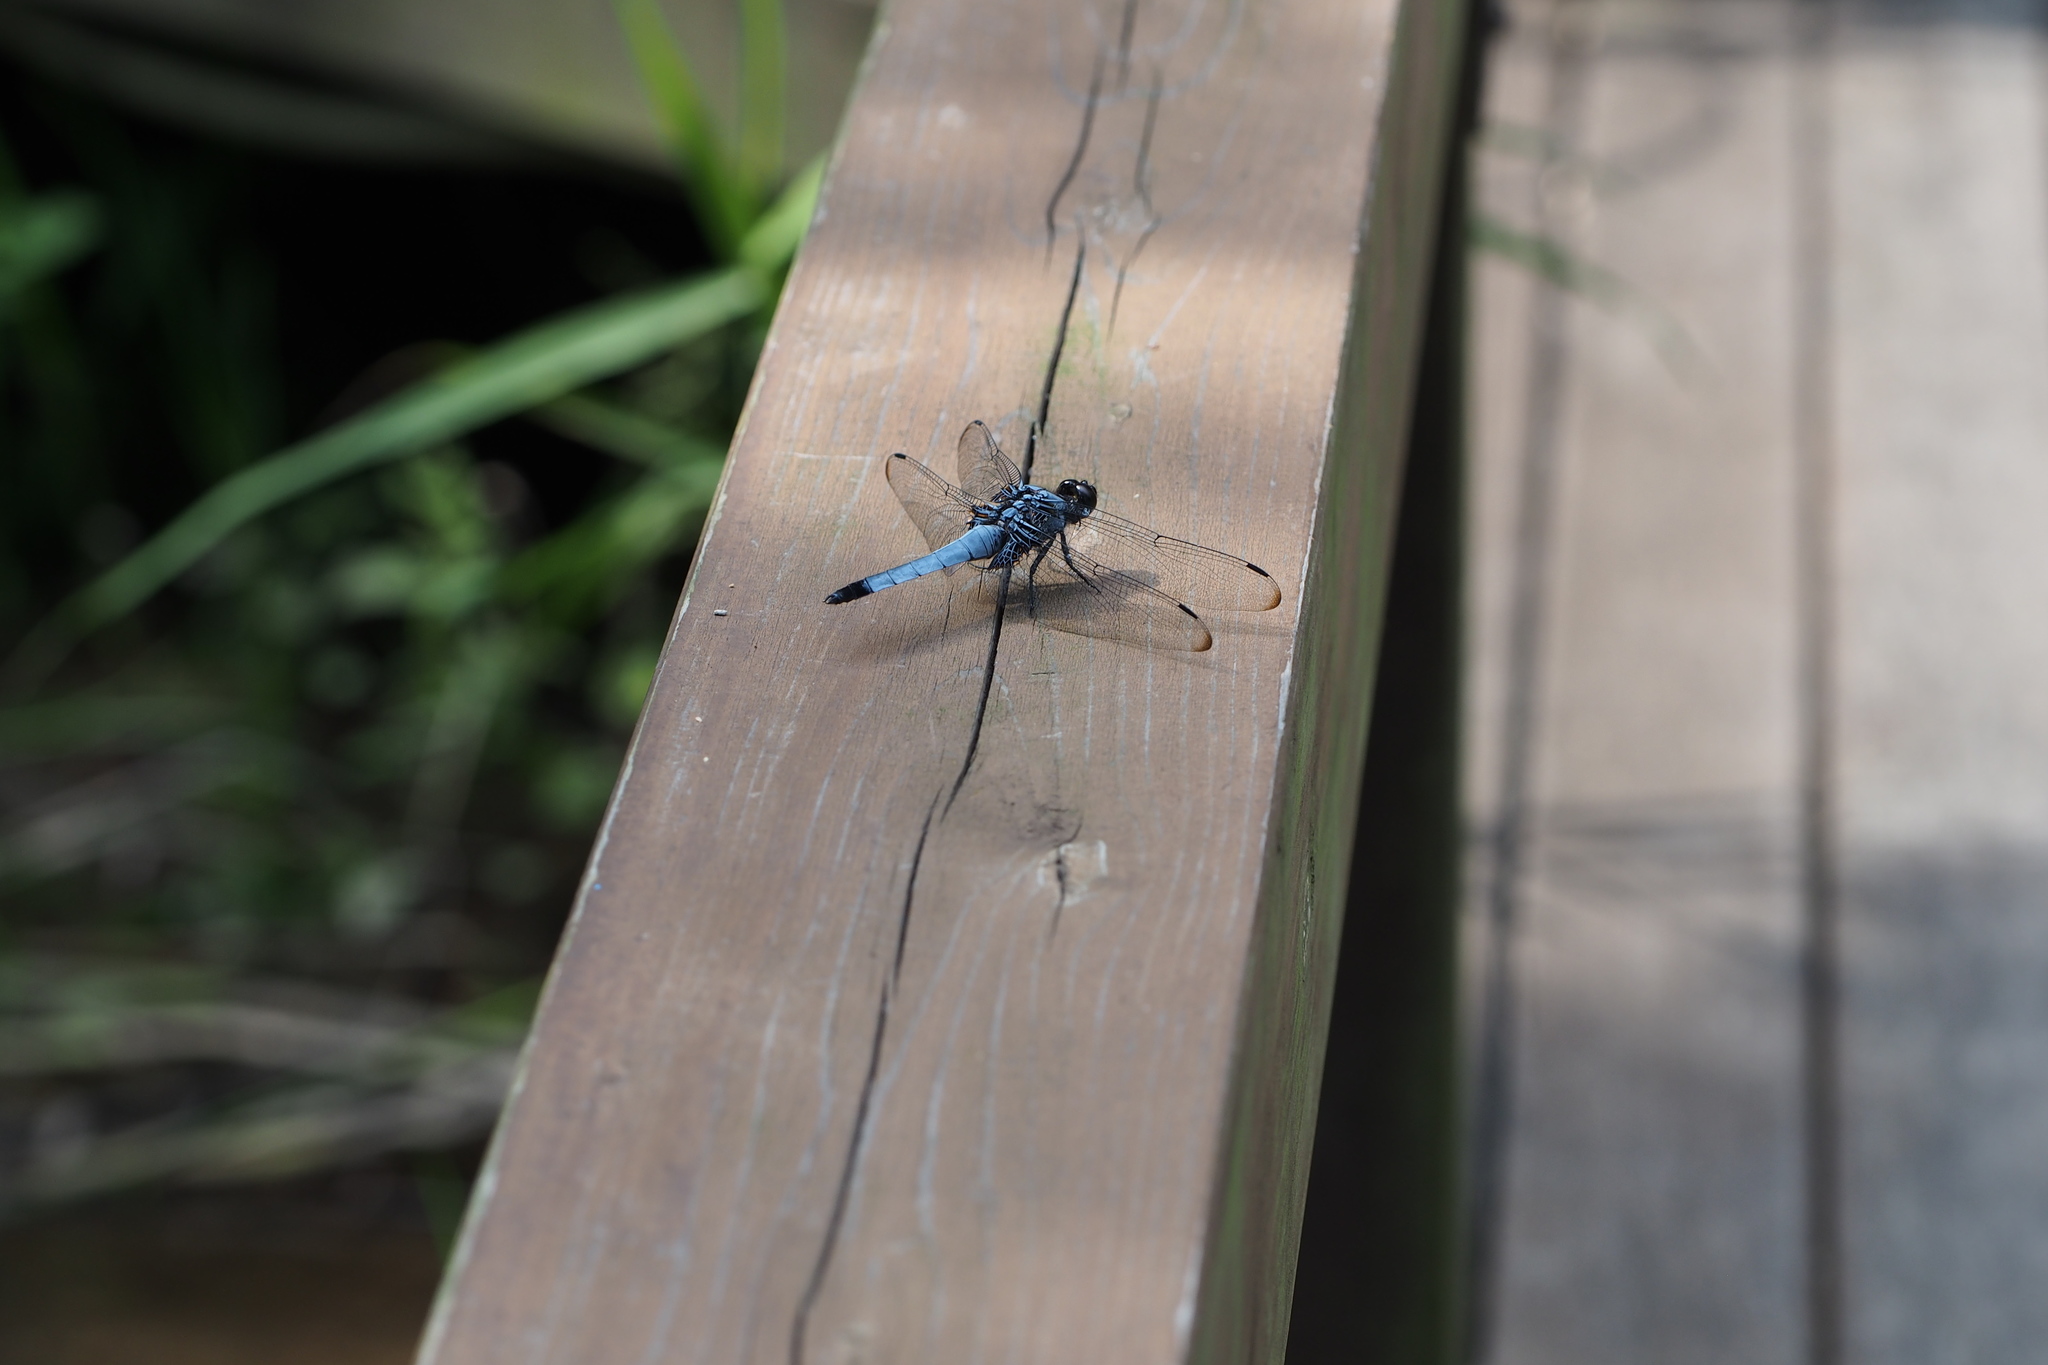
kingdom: Animalia
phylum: Arthropoda
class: Insecta
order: Odonata
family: Libellulidae
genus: Orthetrum
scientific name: Orthetrum melania
